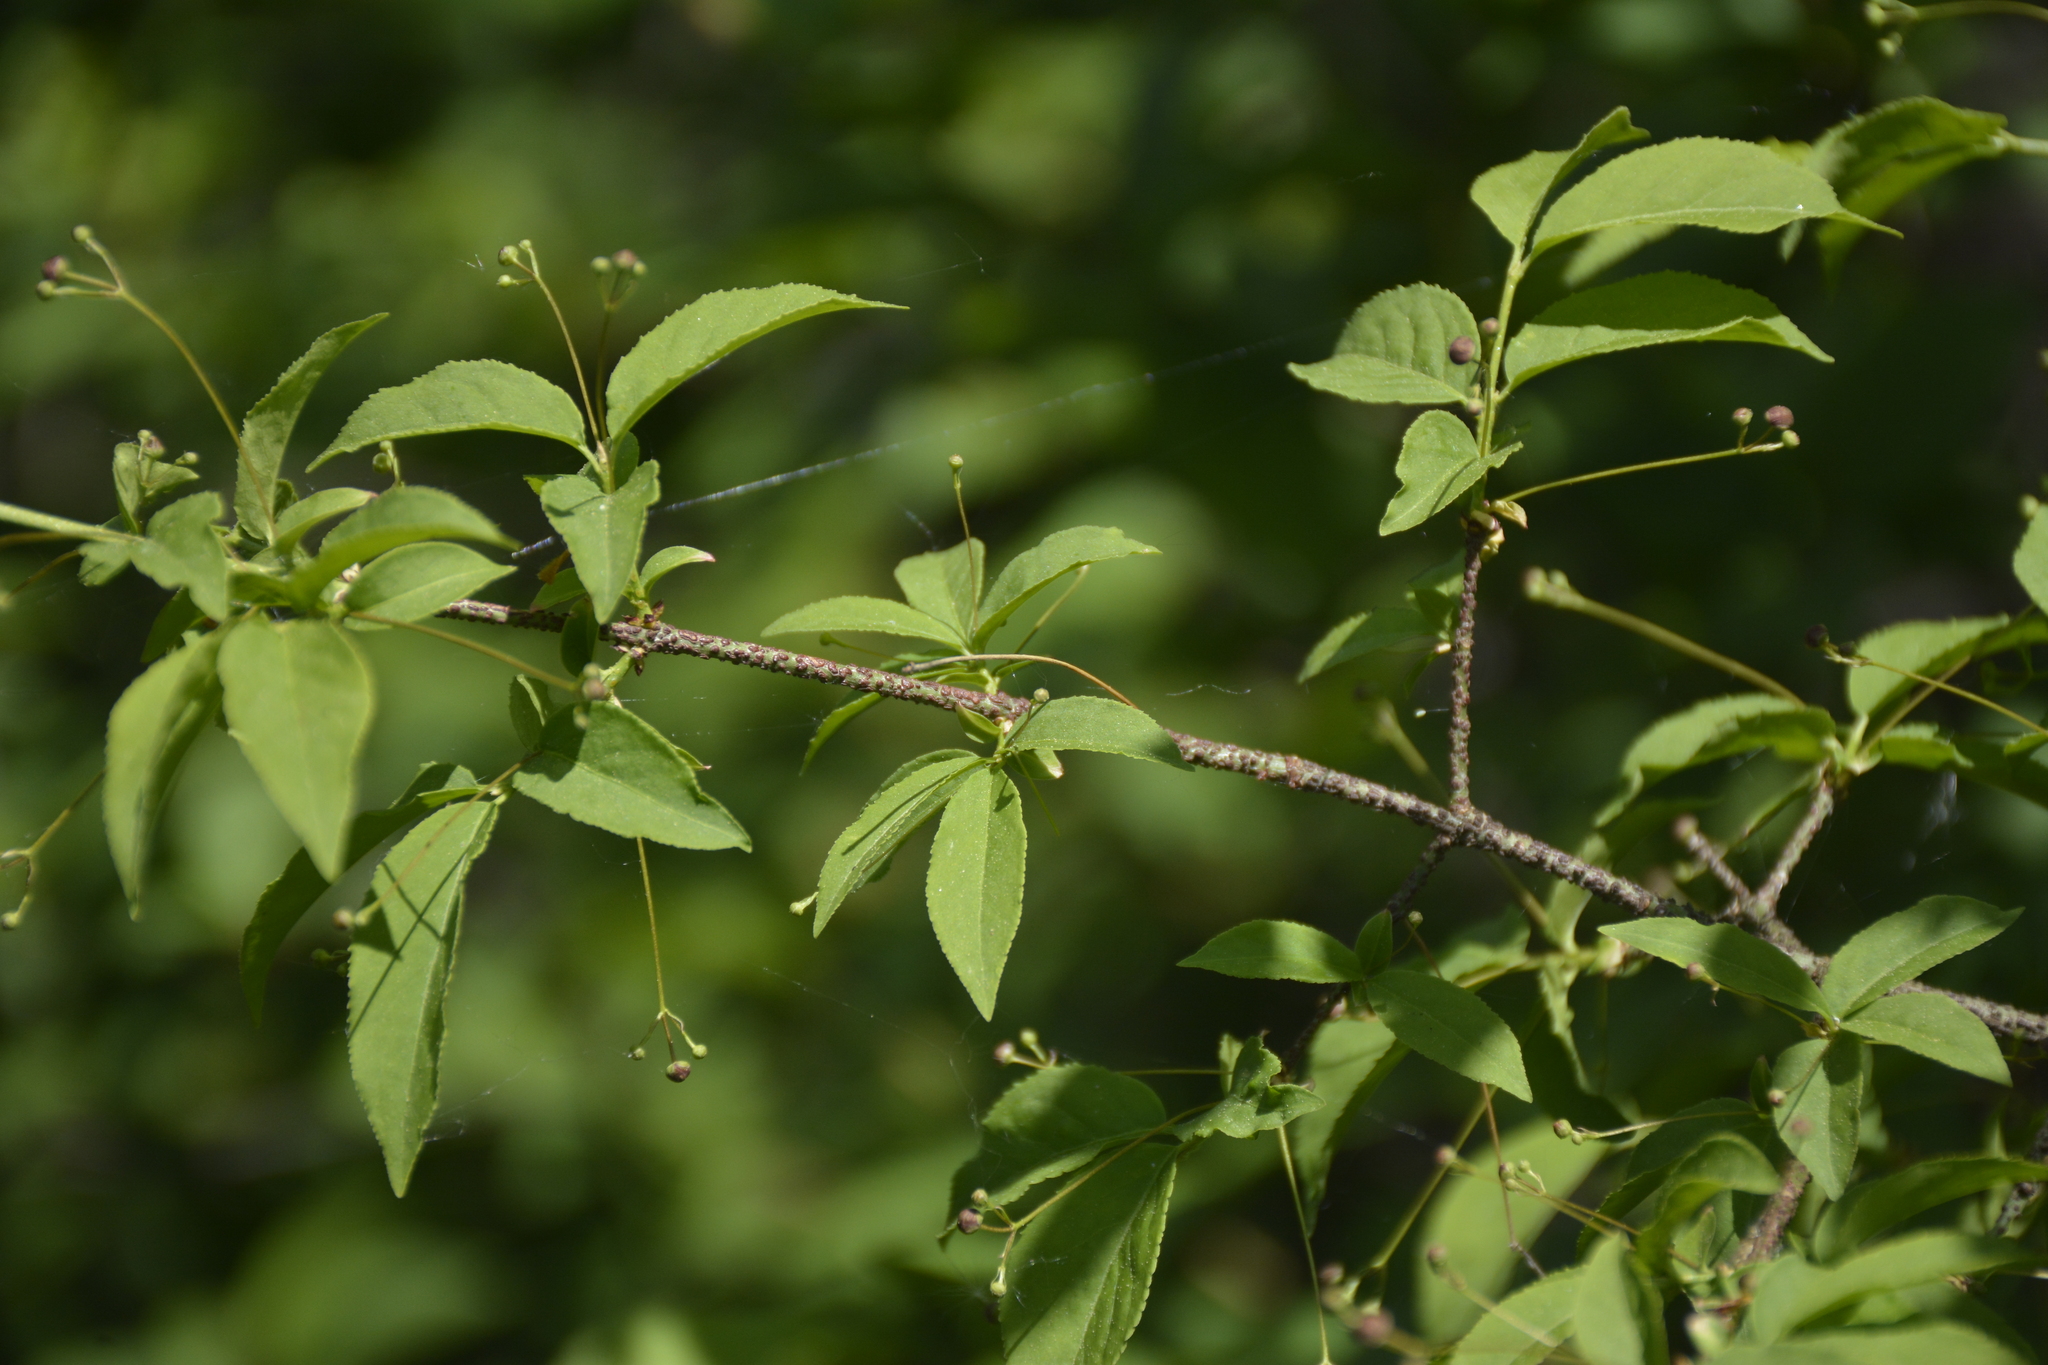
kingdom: Plantae
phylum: Tracheophyta
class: Magnoliopsida
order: Celastrales
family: Celastraceae
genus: Euonymus
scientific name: Euonymus verrucosus
